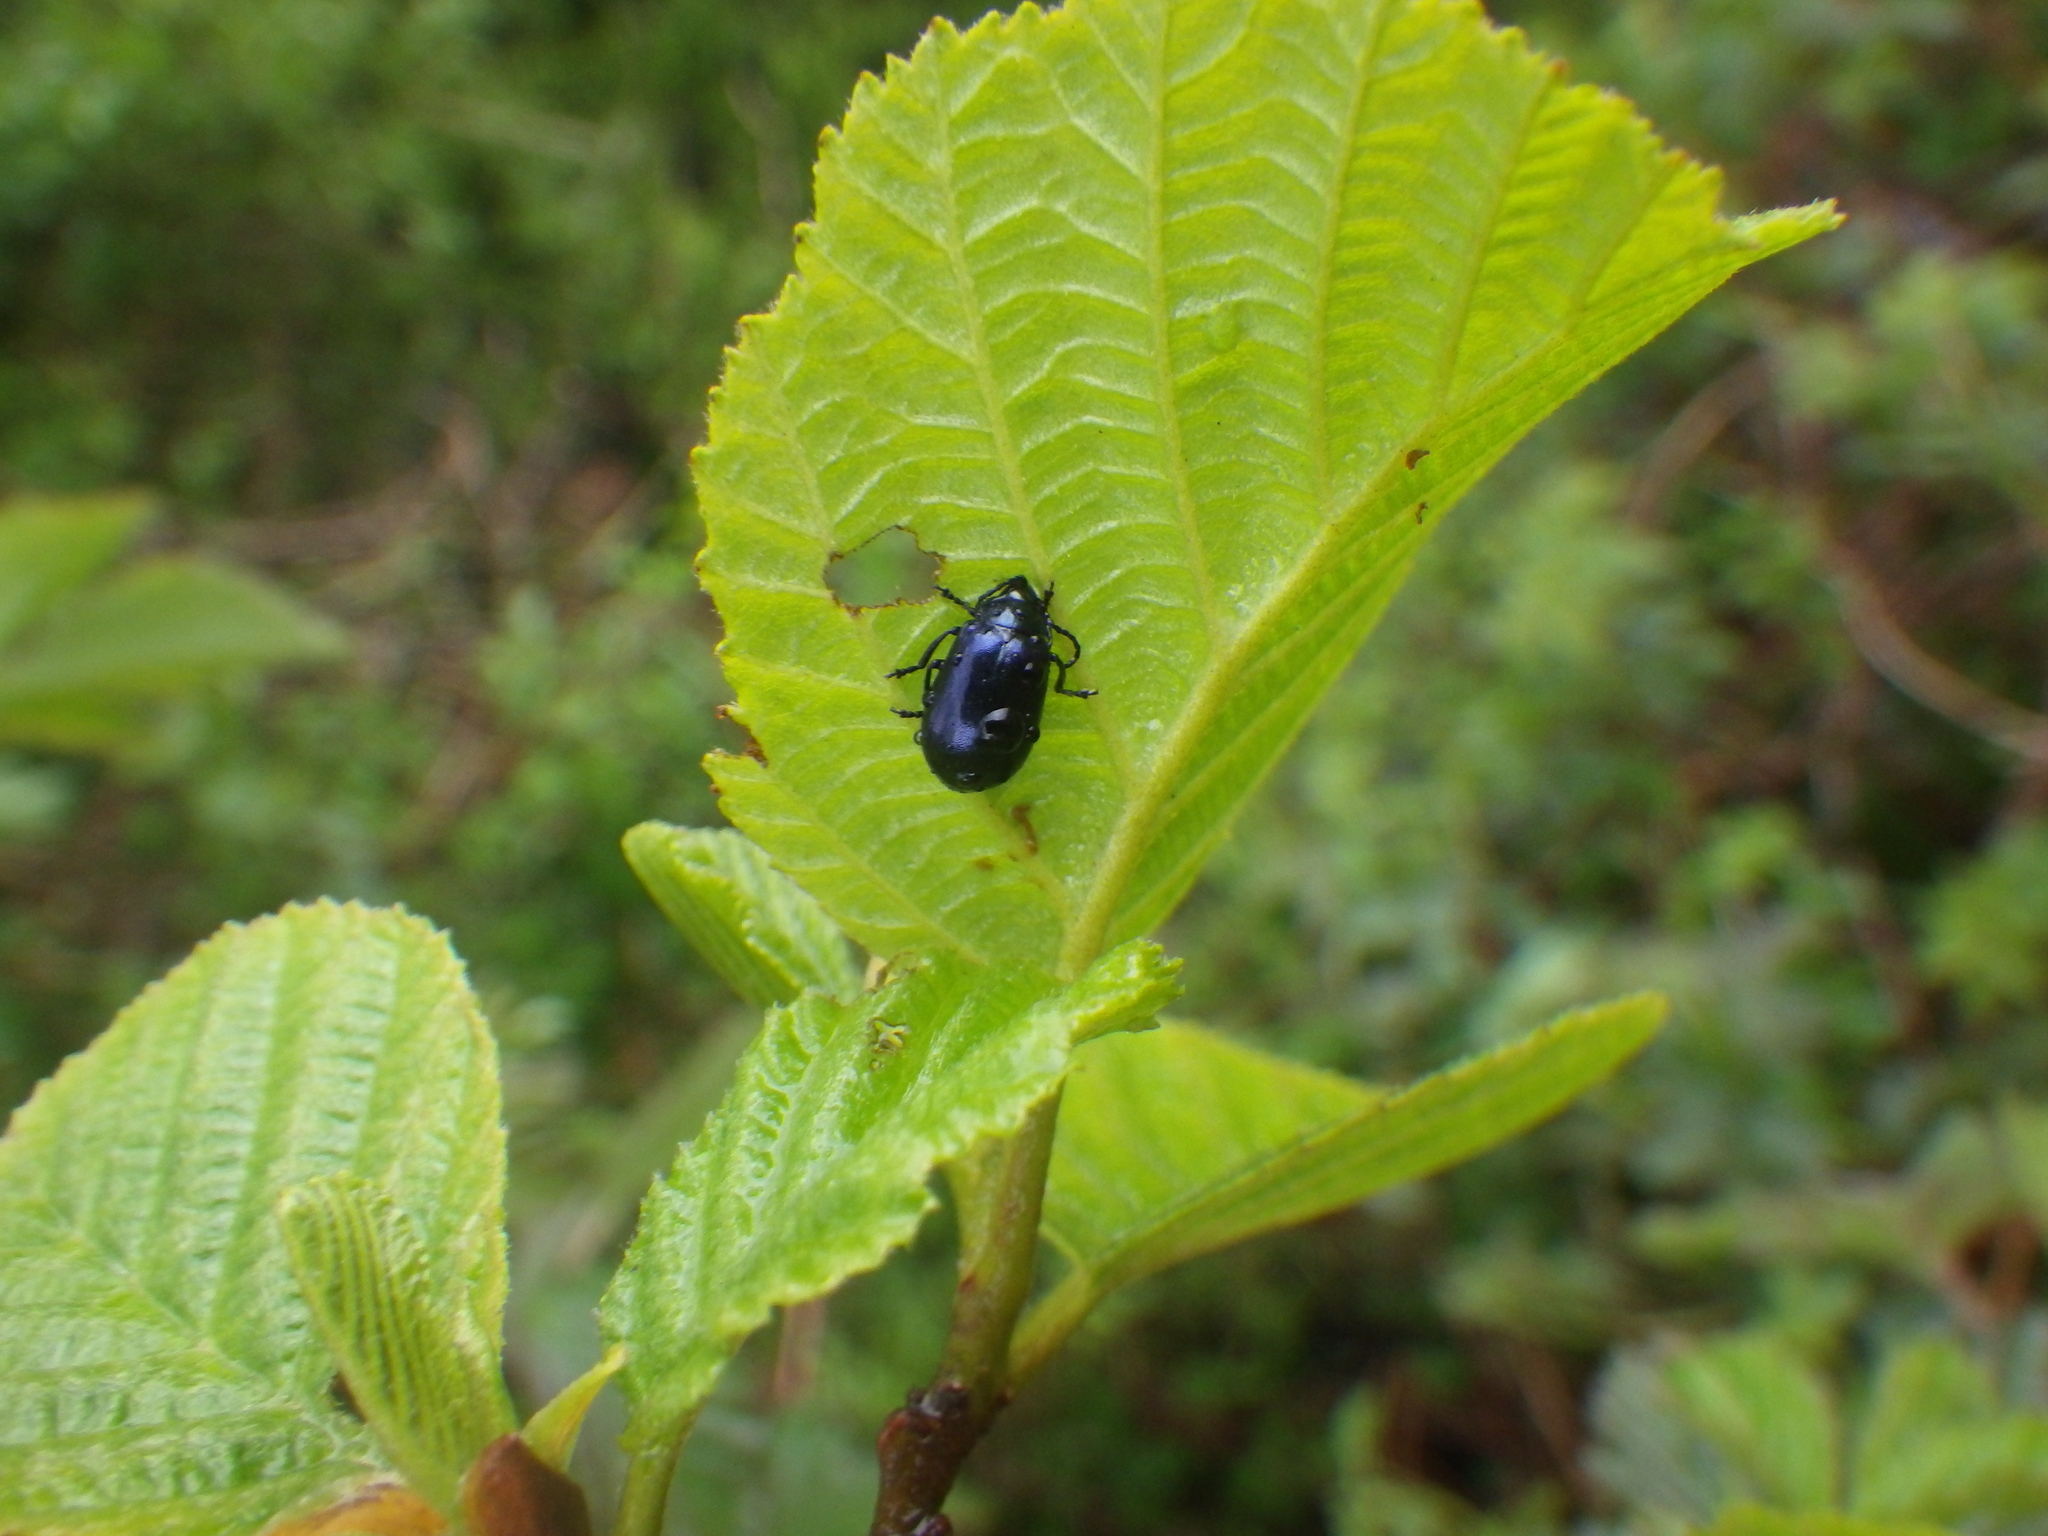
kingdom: Animalia
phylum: Arthropoda
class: Insecta
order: Coleoptera
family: Chrysomelidae
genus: Agelastica
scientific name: Agelastica alni
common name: Alder leaf beetle
